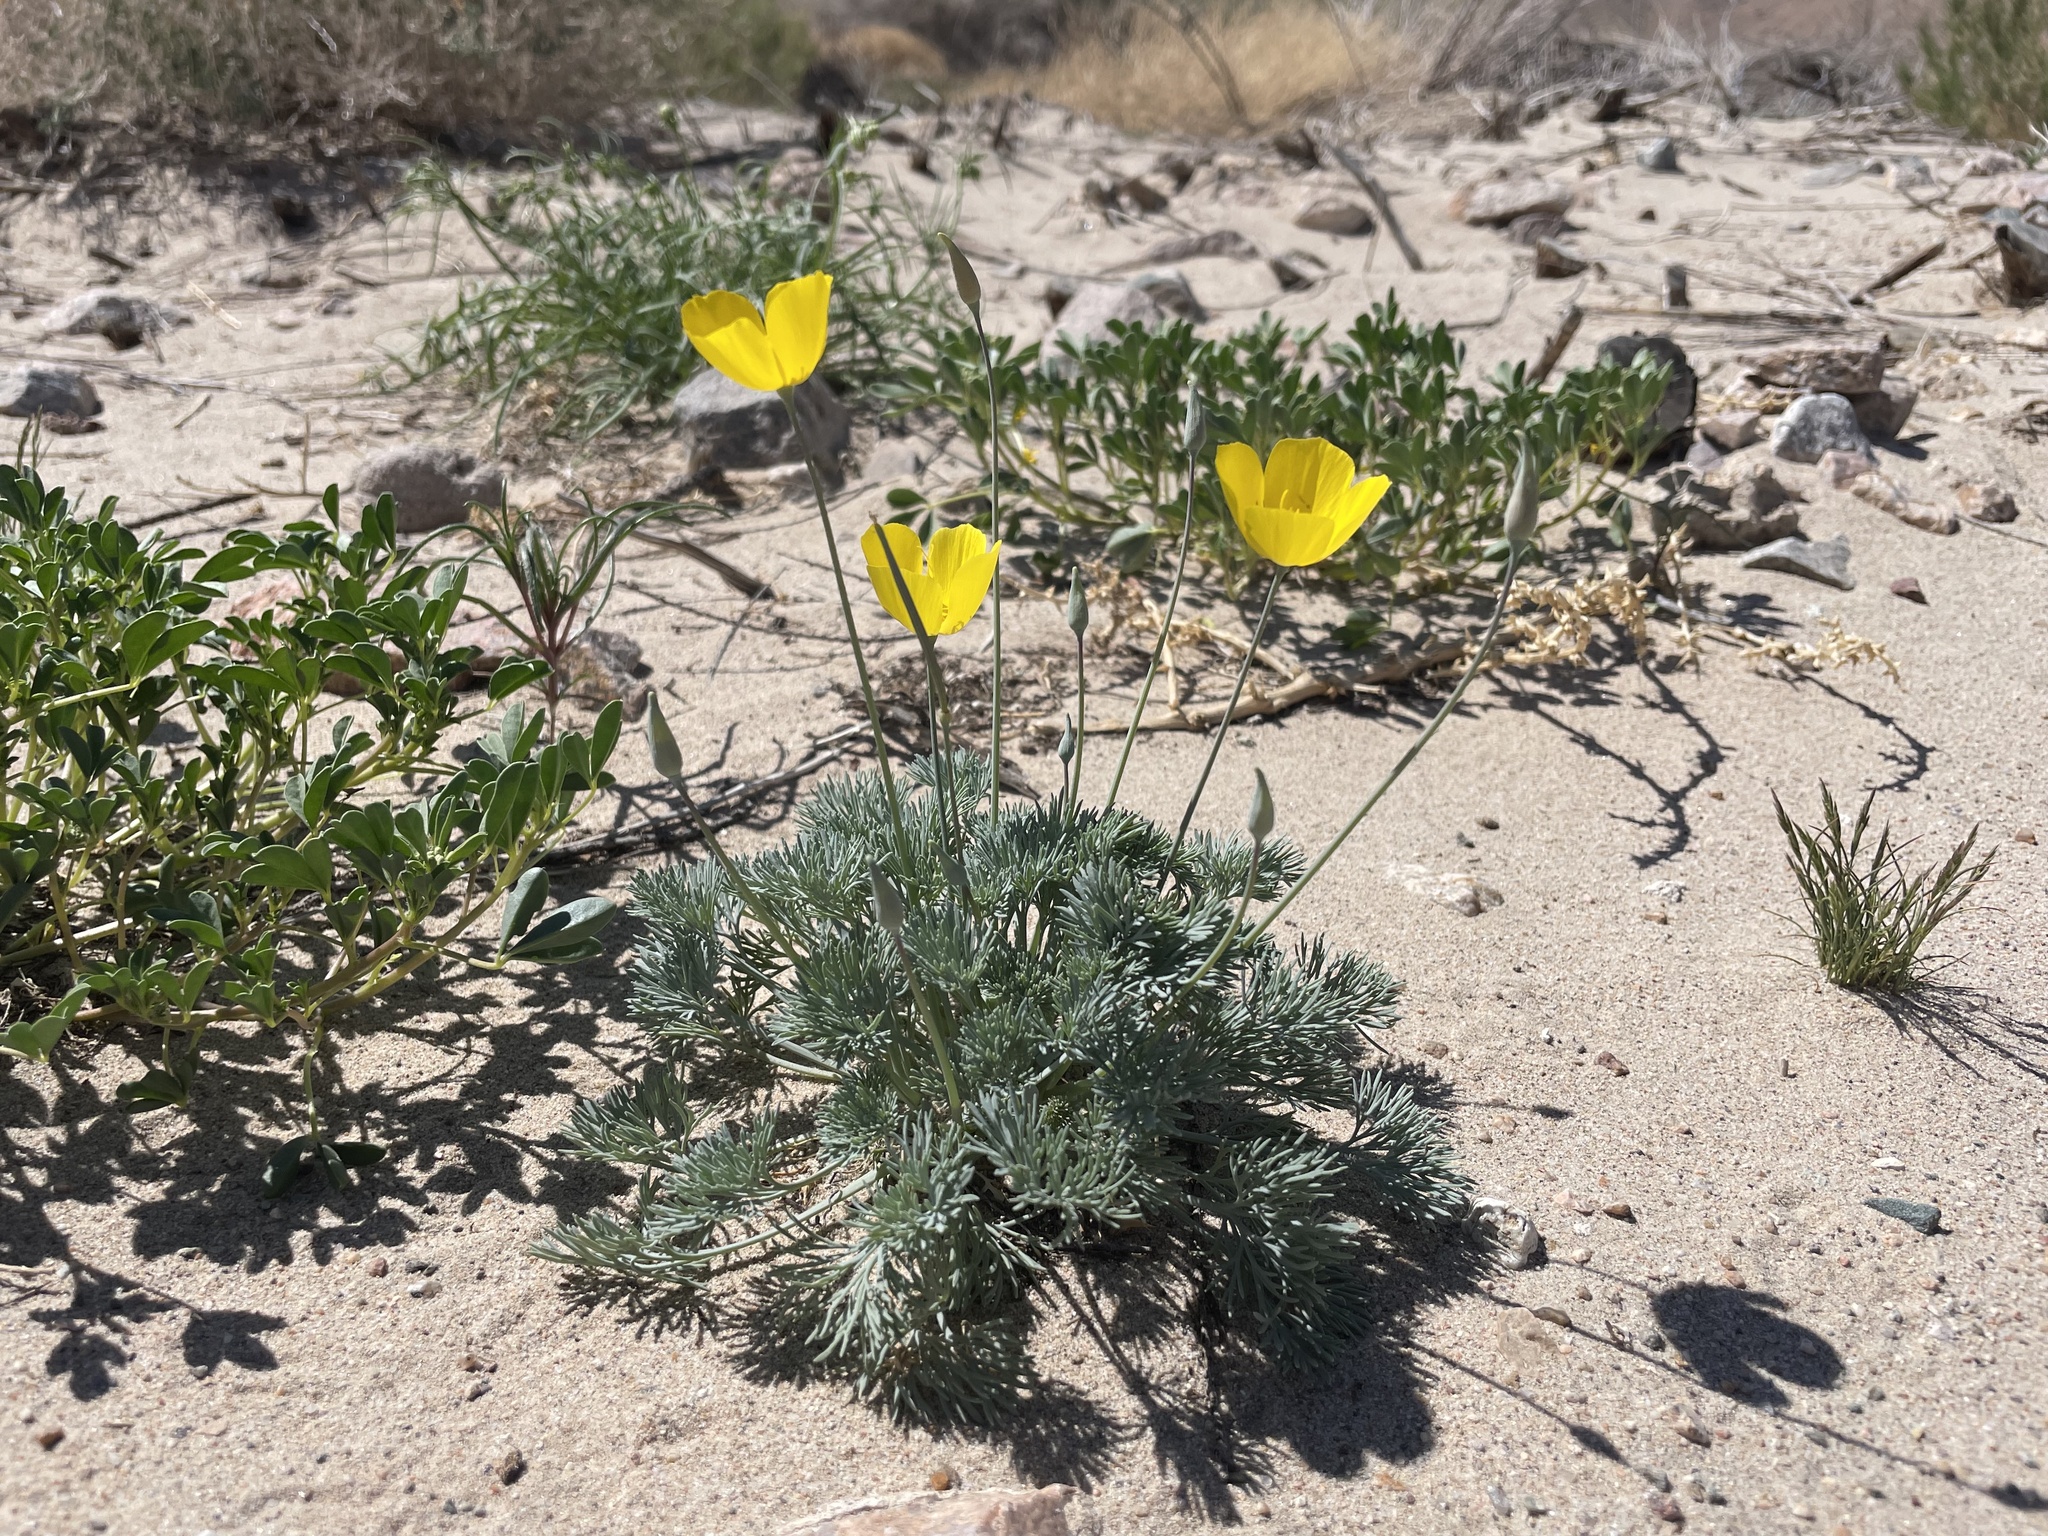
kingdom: Plantae
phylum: Tracheophyta
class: Magnoliopsida
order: Ranunculales
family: Papaveraceae
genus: Eschscholzia
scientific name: Eschscholzia glyptosperma
